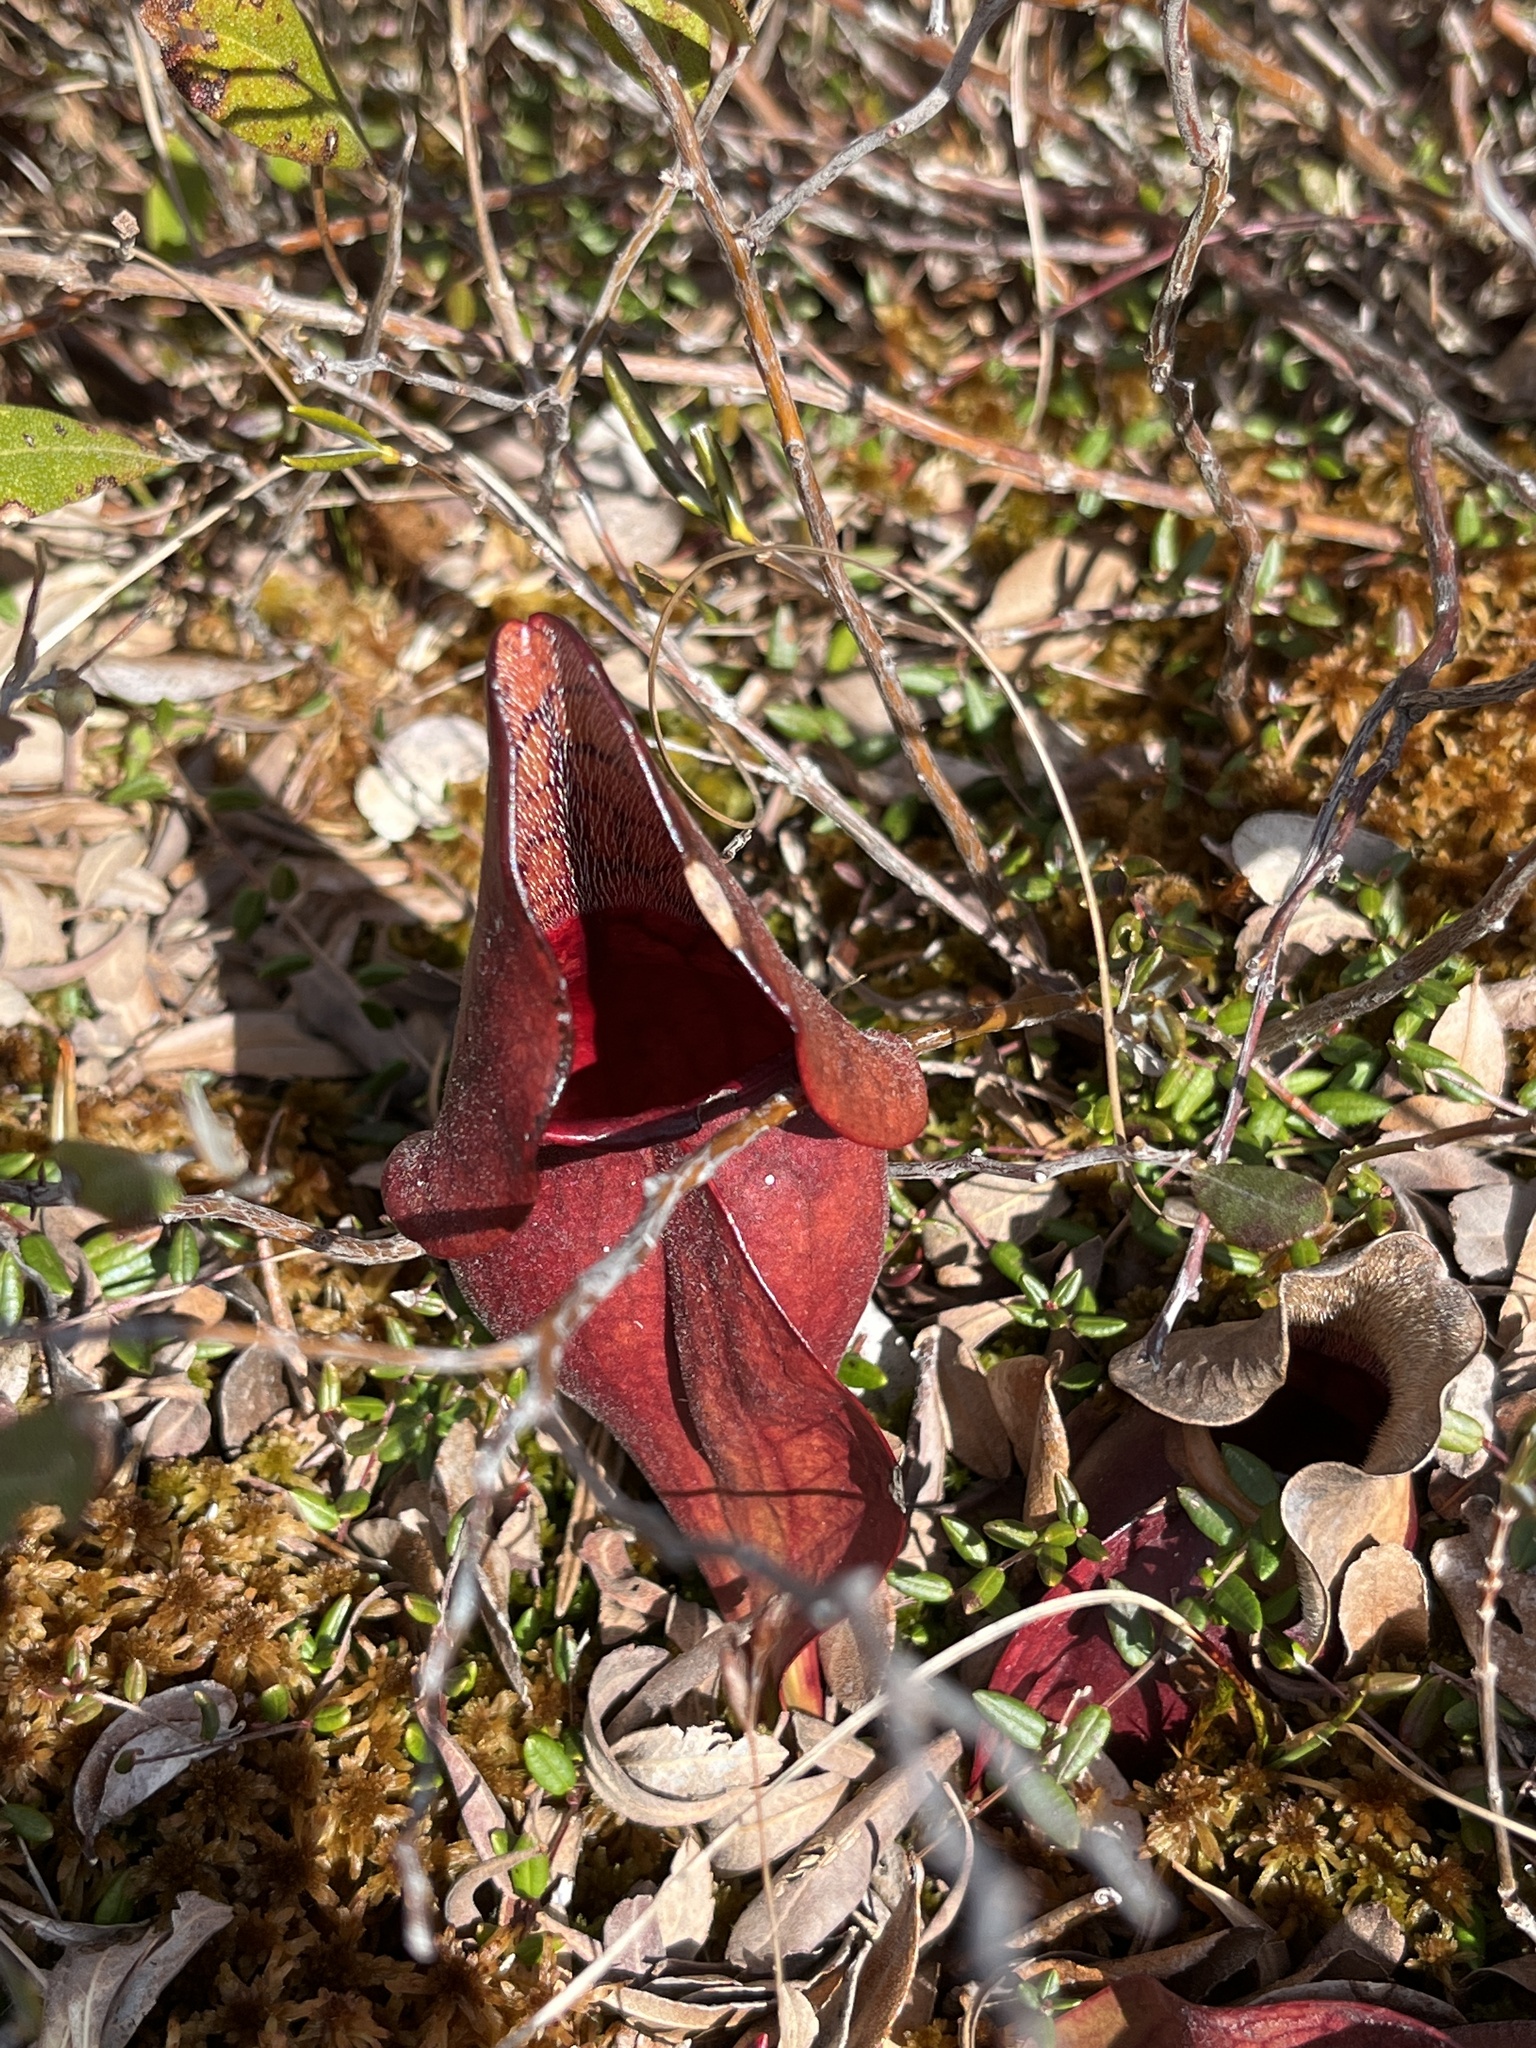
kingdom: Plantae
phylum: Tracheophyta
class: Magnoliopsida
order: Ericales
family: Sarraceniaceae
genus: Sarracenia
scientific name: Sarracenia purpurea
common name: Pitcherplant
